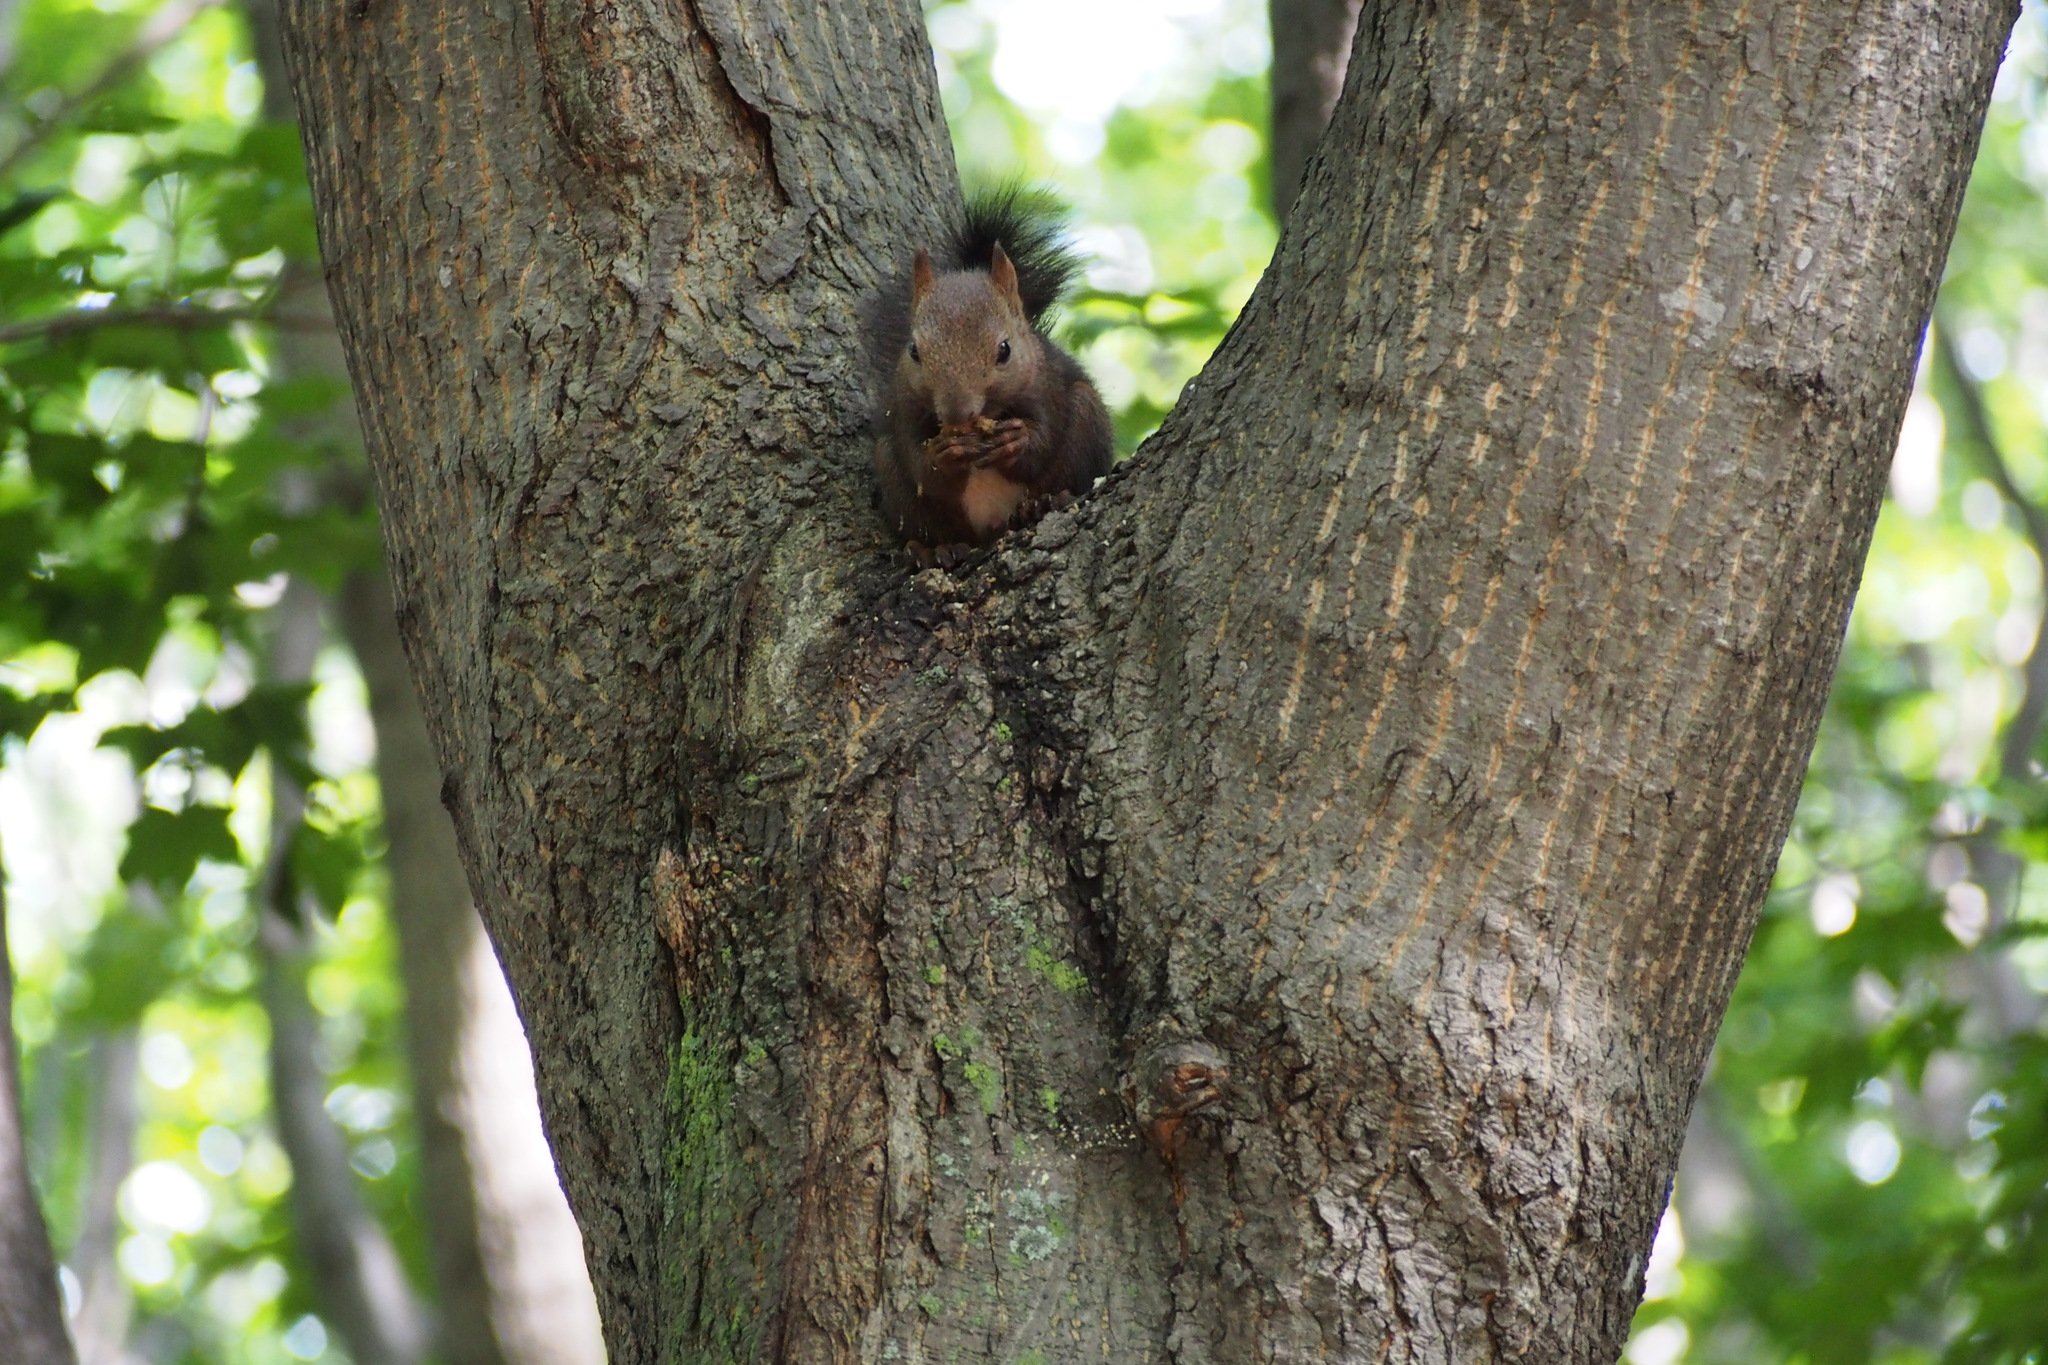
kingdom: Animalia
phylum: Chordata
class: Mammalia
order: Rodentia
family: Sciuridae
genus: Sciurus
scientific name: Sciurus vulgaris
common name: Eurasian red squirrel
